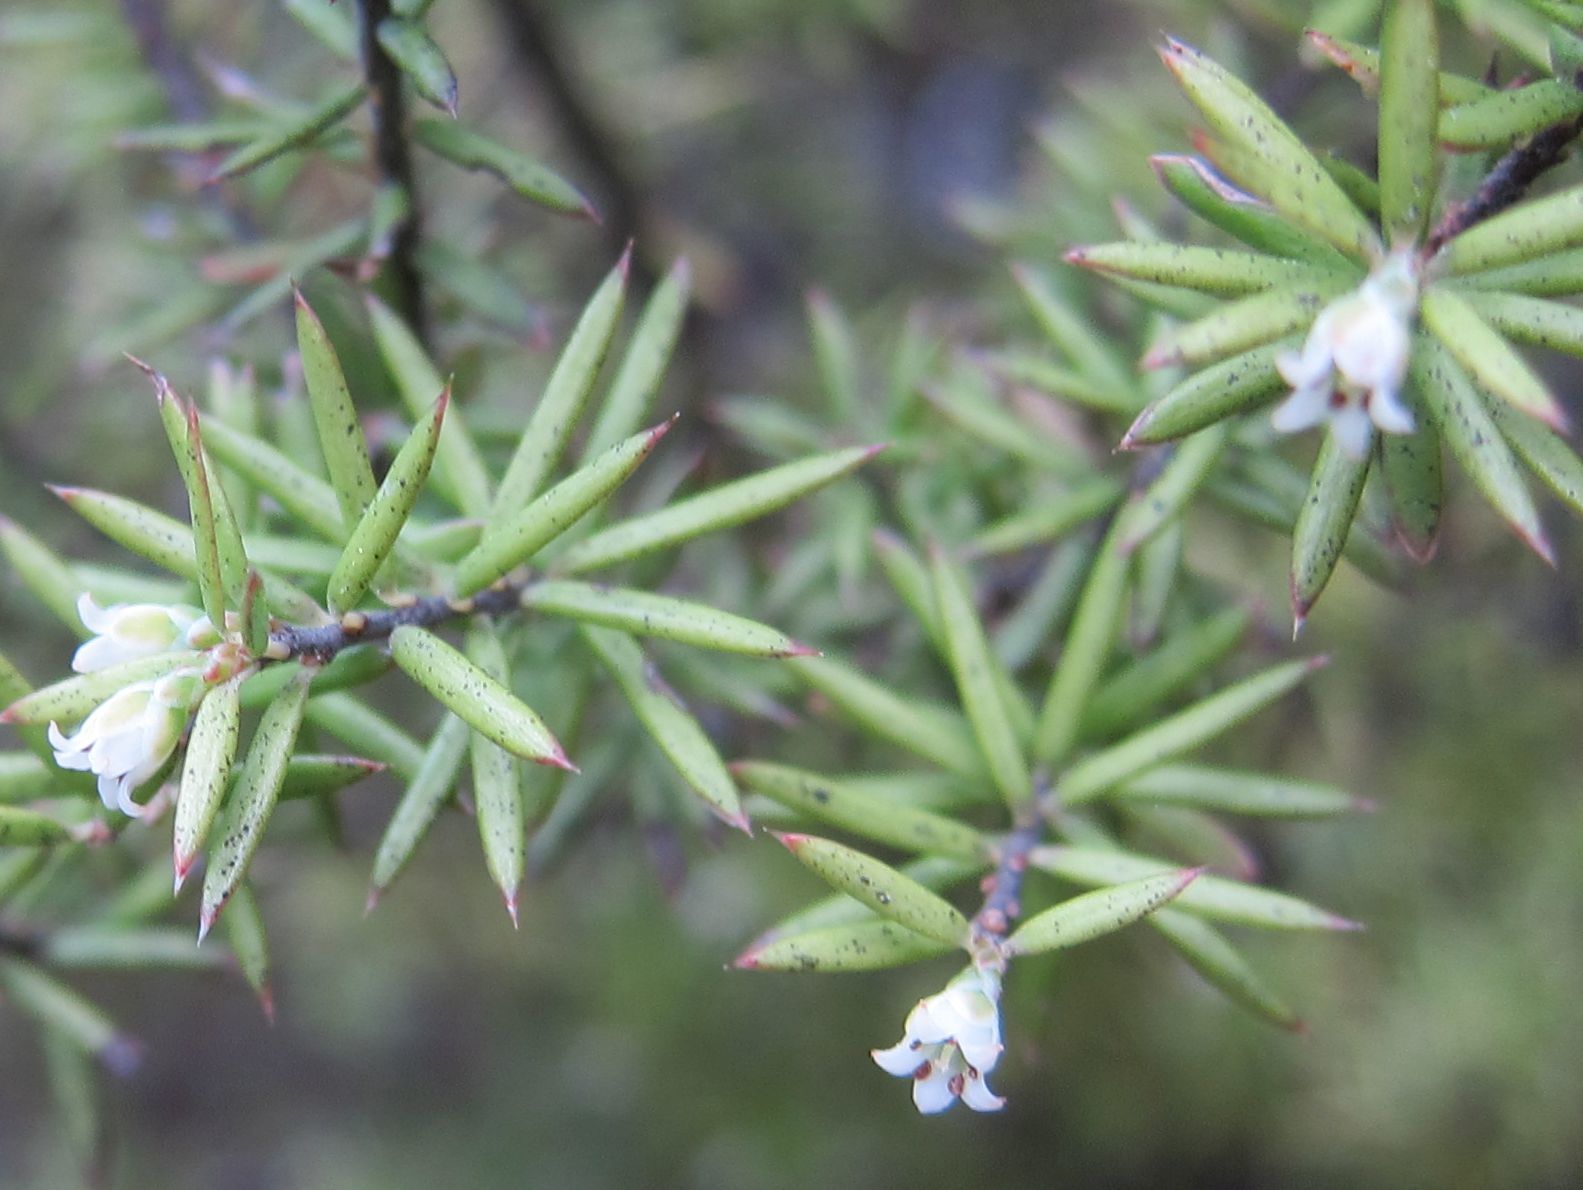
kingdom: Plantae
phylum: Tracheophyta
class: Magnoliopsida
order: Ericales
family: Ericaceae
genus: Leptecophylla
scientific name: Leptecophylla juniperina
